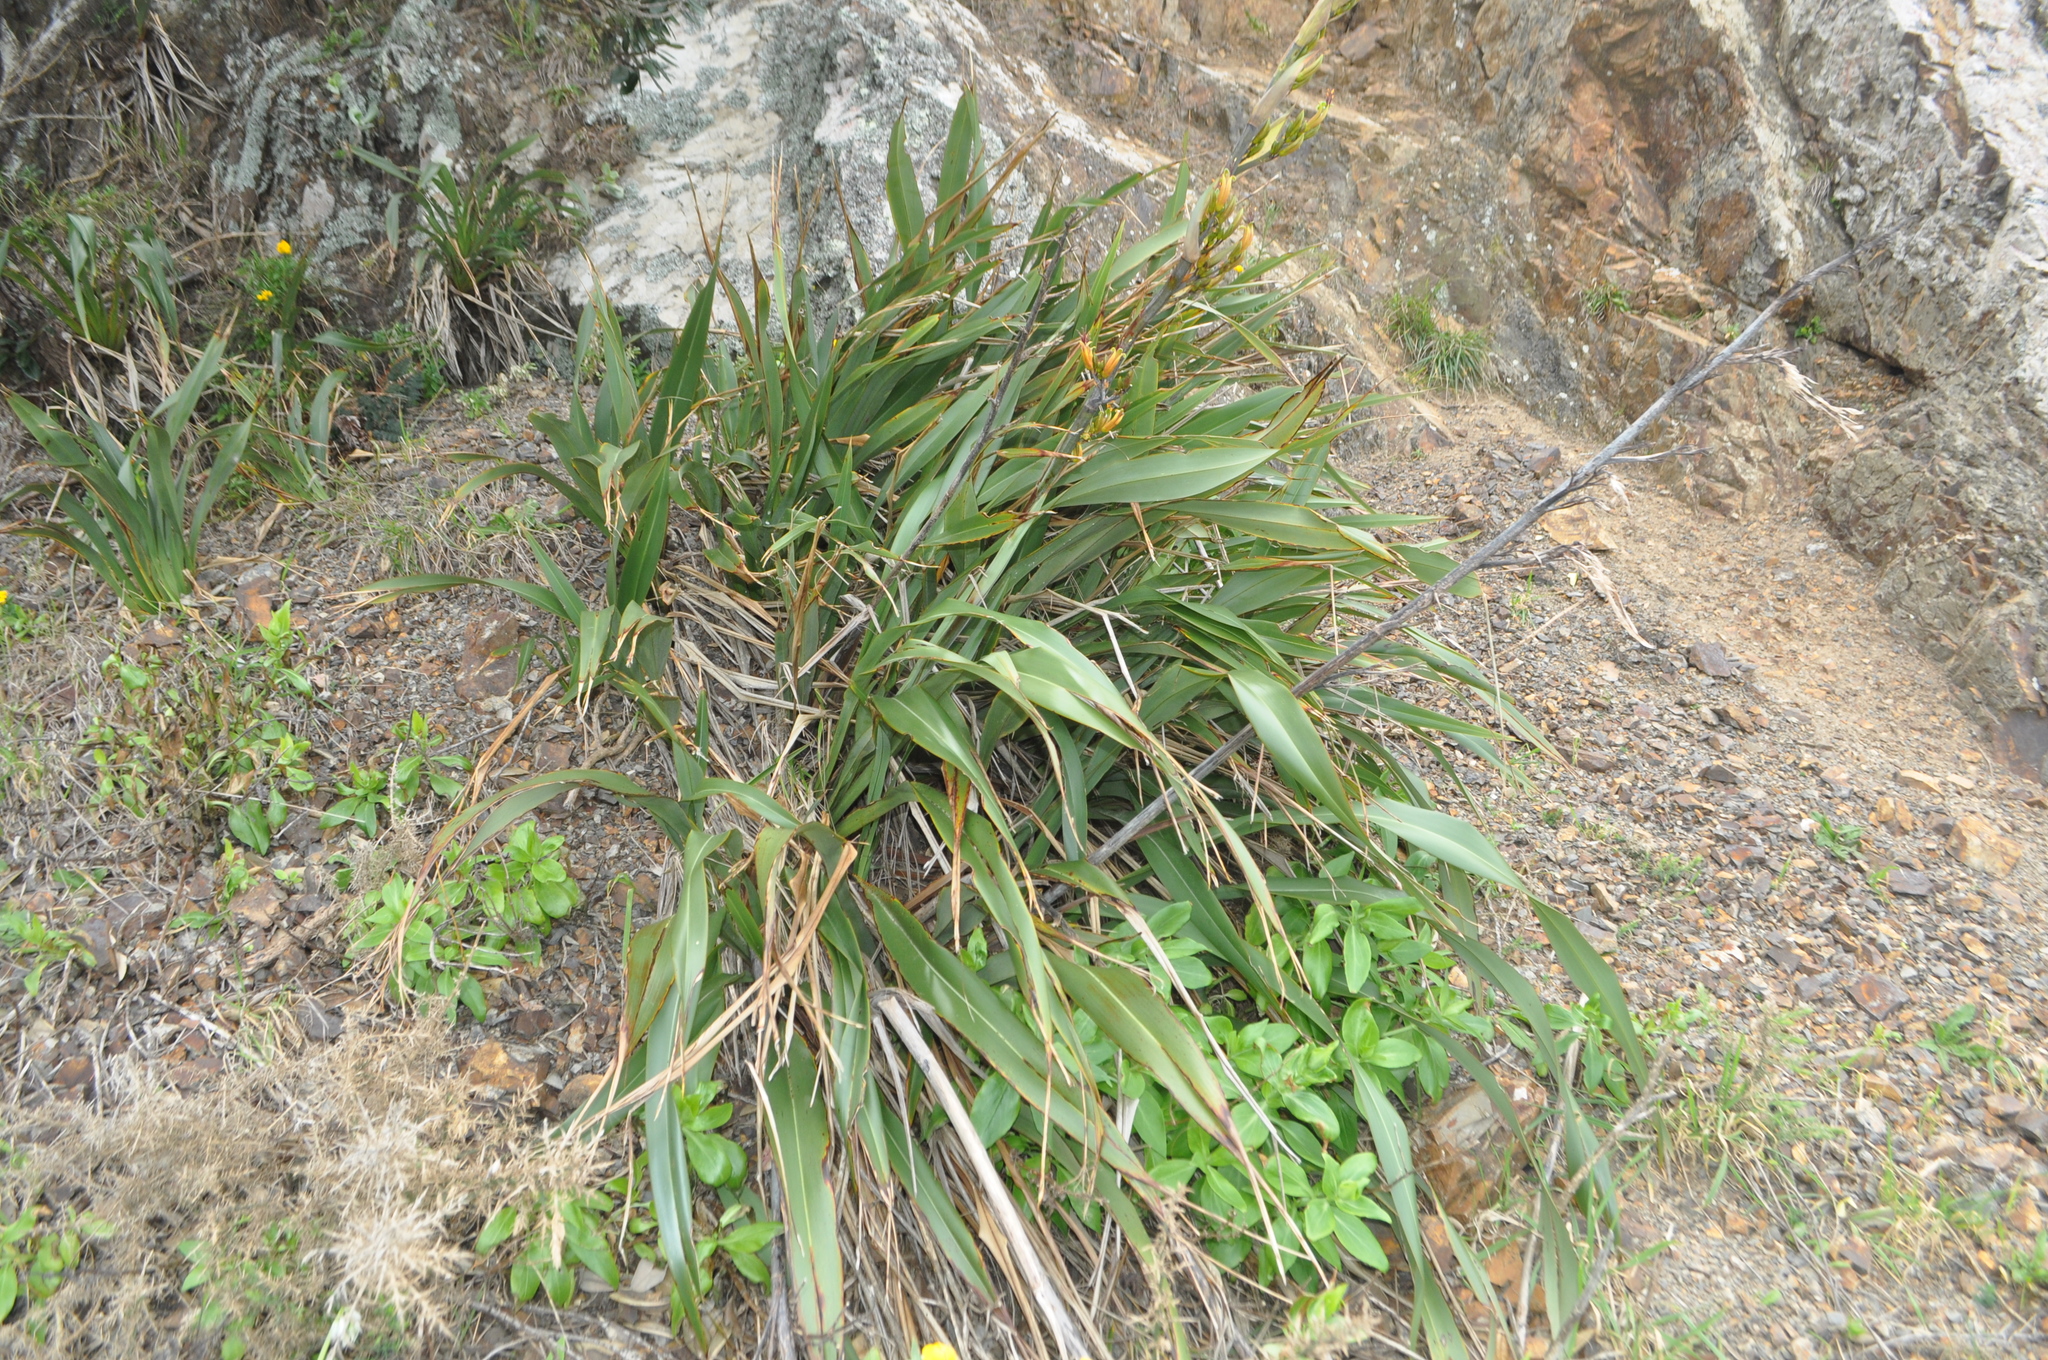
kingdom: Plantae
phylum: Tracheophyta
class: Liliopsida
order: Asparagales
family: Asphodelaceae
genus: Phormium
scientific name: Phormium colensoi
